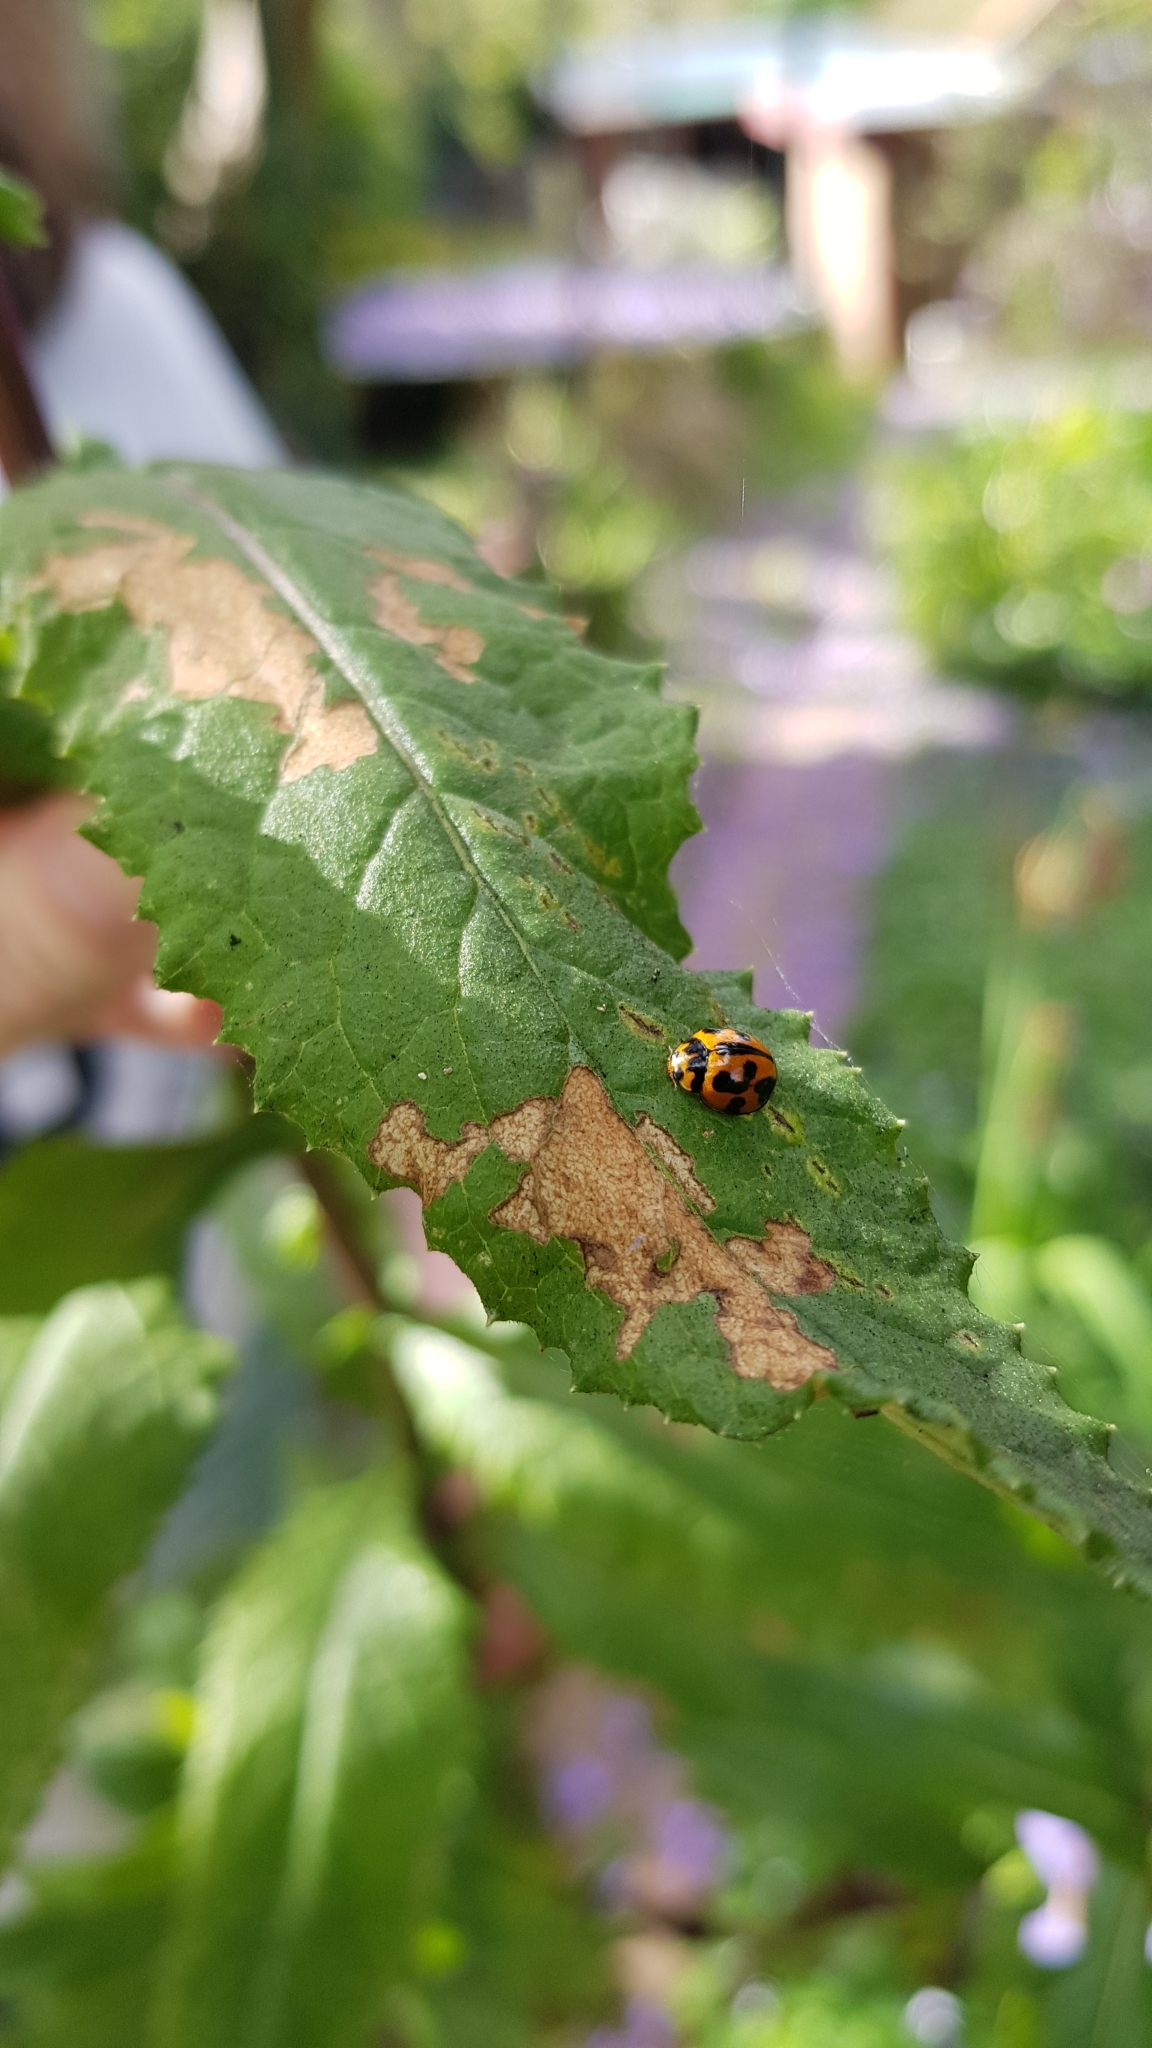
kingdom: Animalia
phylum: Arthropoda
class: Insecta
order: Coleoptera
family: Coccinellidae
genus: Coelophora
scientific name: Coelophora inaequalis
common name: Common australian lady beetle
